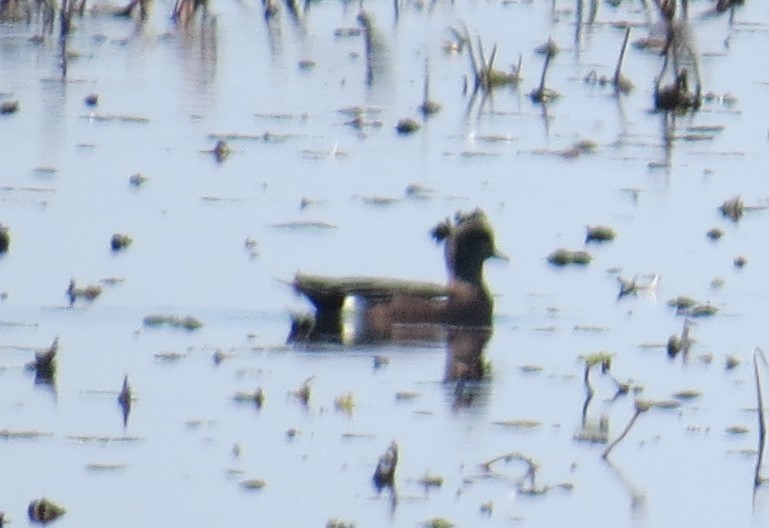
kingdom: Animalia
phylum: Chordata
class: Aves
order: Anseriformes
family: Anatidae
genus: Mareca
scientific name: Mareca americana
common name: American wigeon
